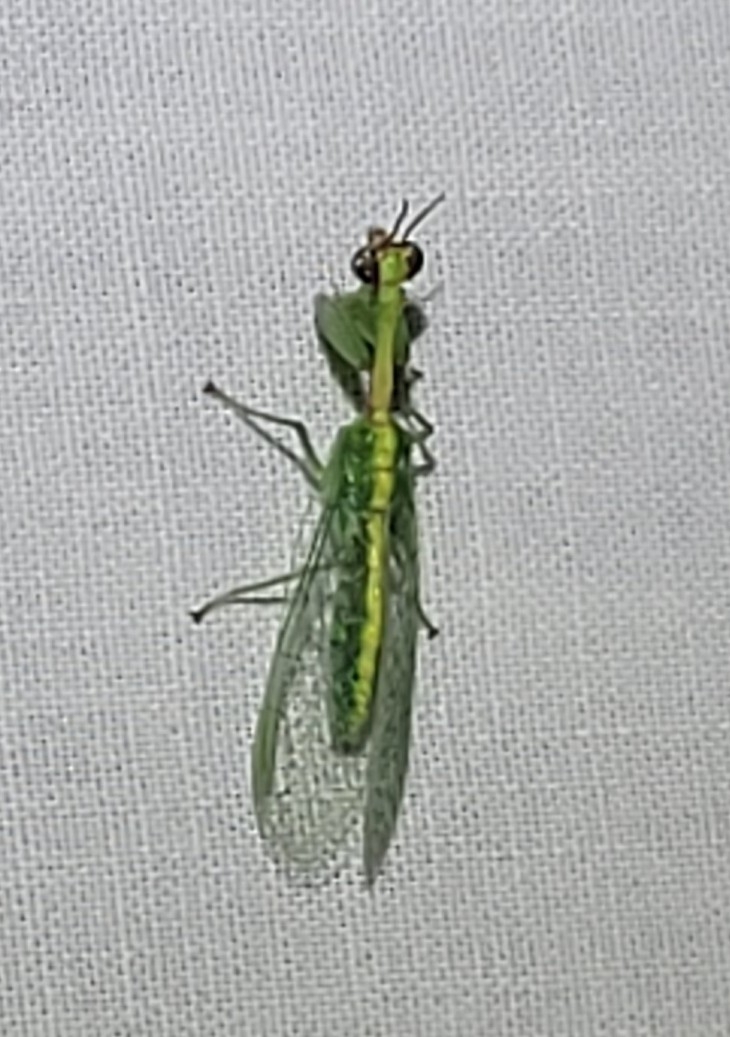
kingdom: Animalia
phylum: Arthropoda
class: Insecta
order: Neuroptera
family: Mantispidae
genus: Zeugomantispa
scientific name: Zeugomantispa minuta
